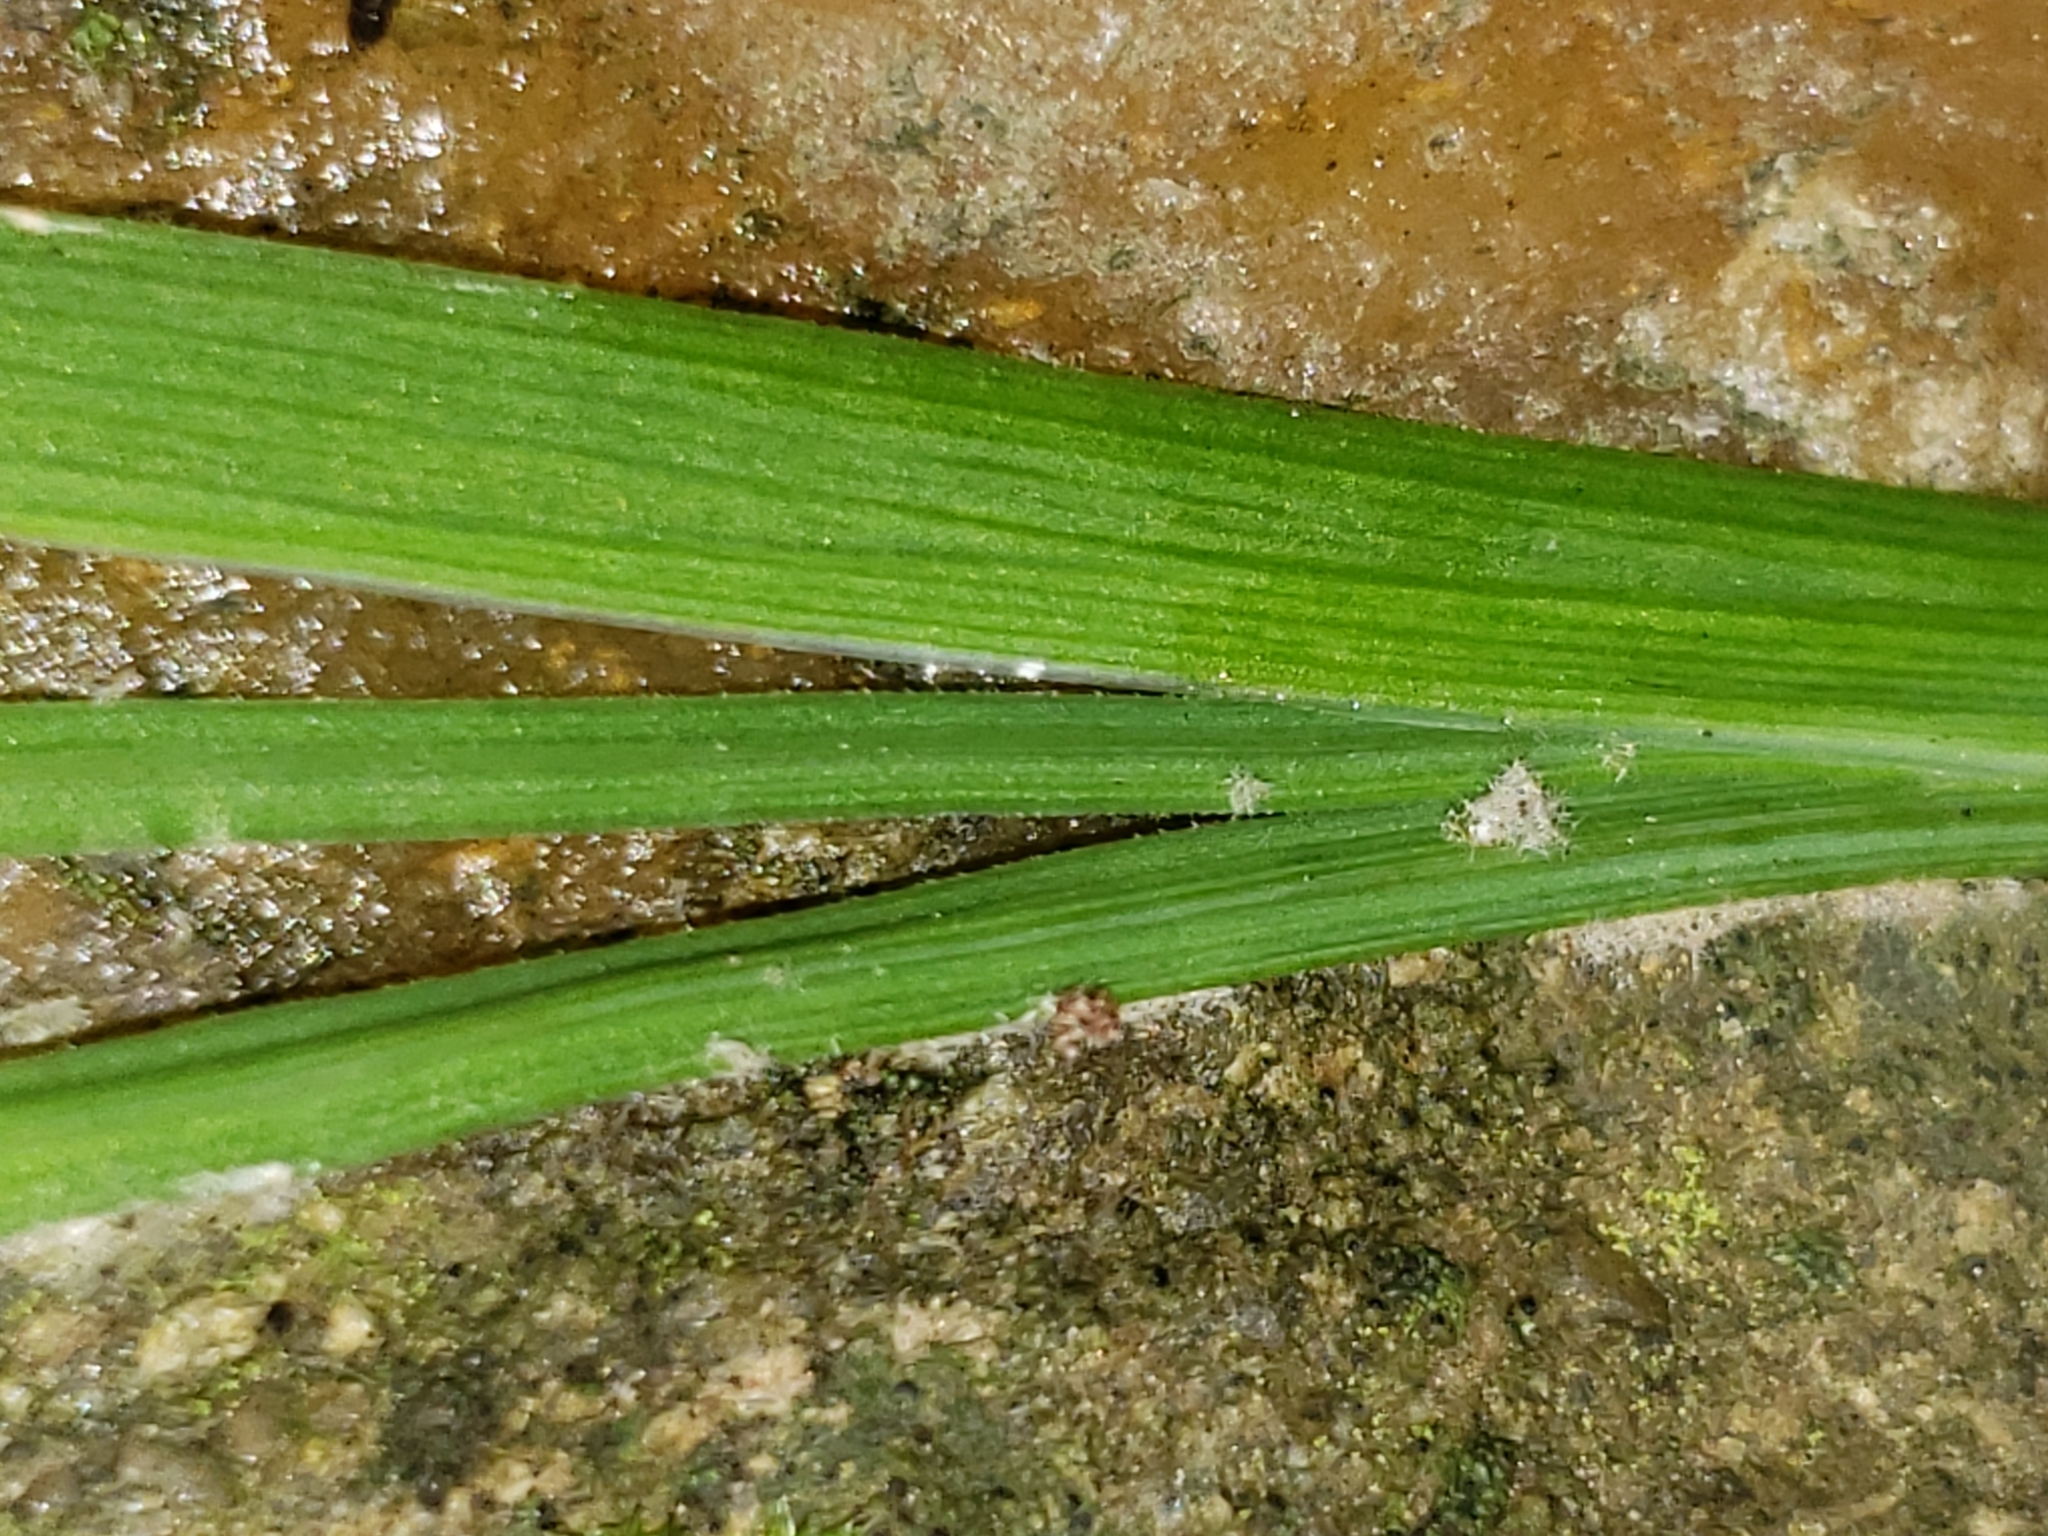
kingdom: Plantae
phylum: Tracheophyta
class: Liliopsida
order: Asparagales
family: Iridaceae
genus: Sisyrinchium
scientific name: Sisyrinchium angustifolium
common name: Narrow-leaf blue-eyed-grass
